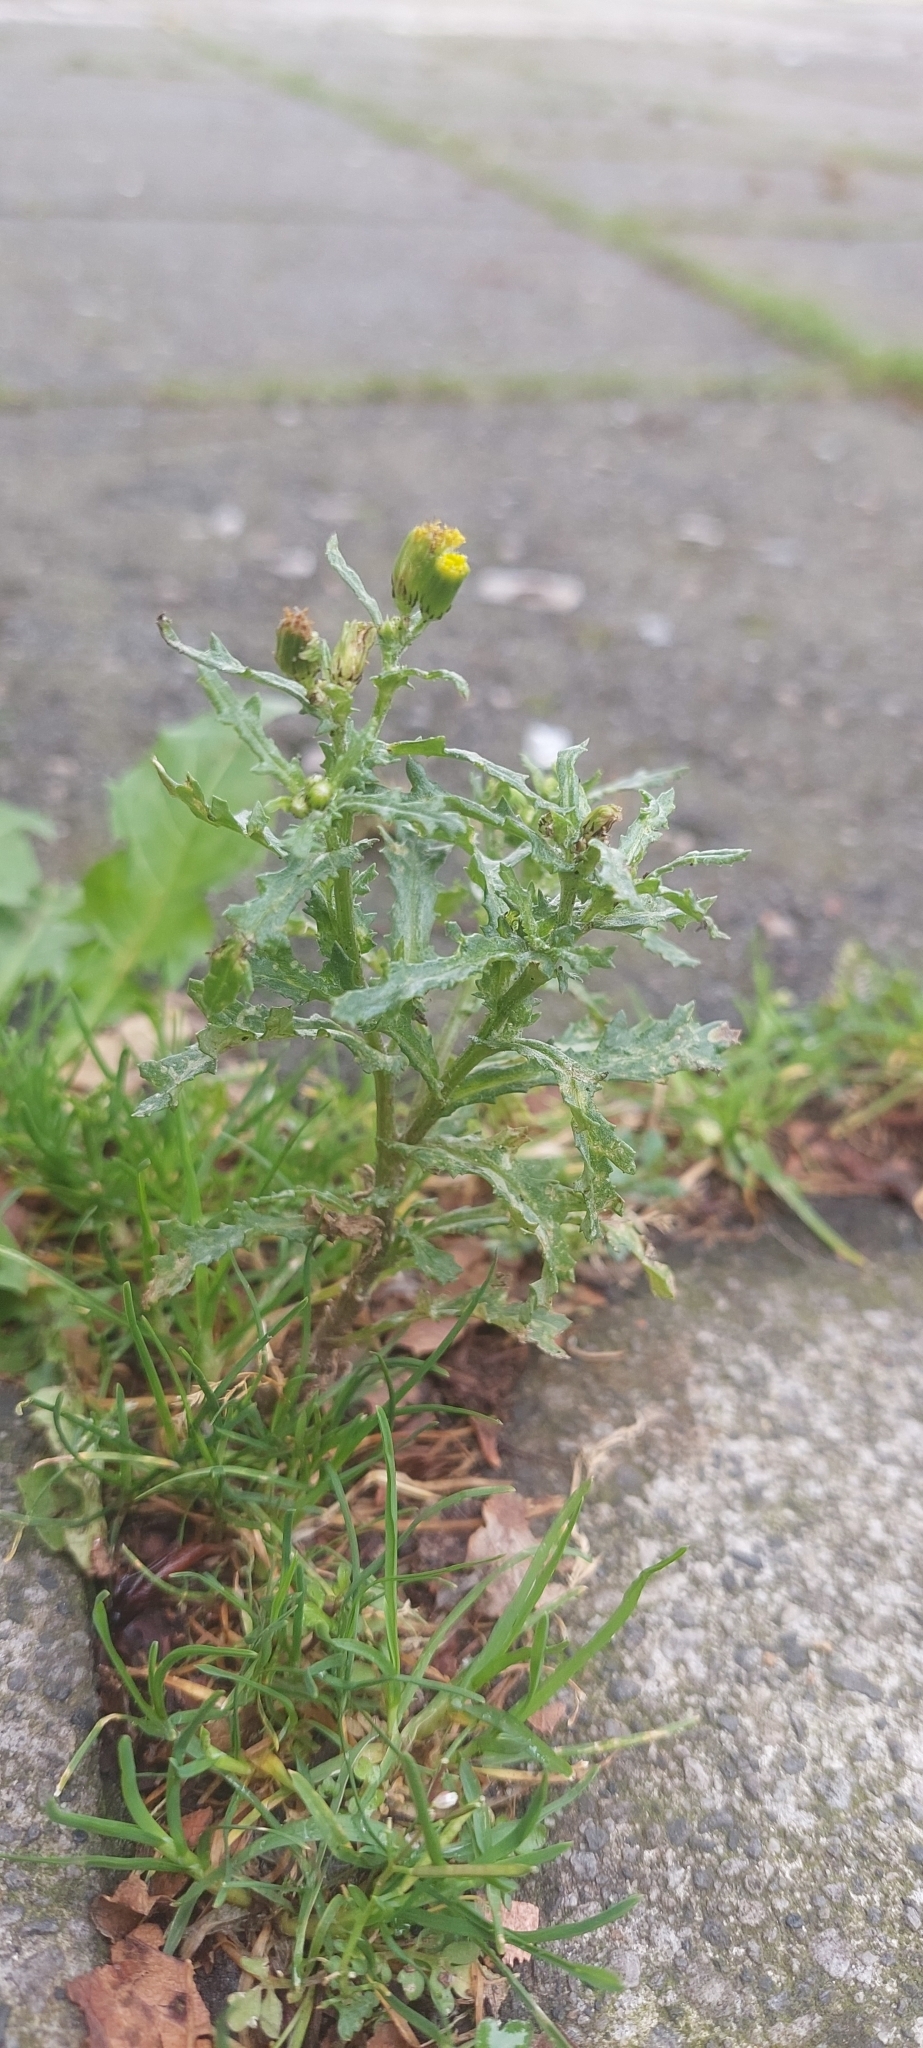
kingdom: Plantae
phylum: Tracheophyta
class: Magnoliopsida
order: Asterales
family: Asteraceae
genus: Senecio
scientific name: Senecio vulgaris
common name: Old-man-in-the-spring
